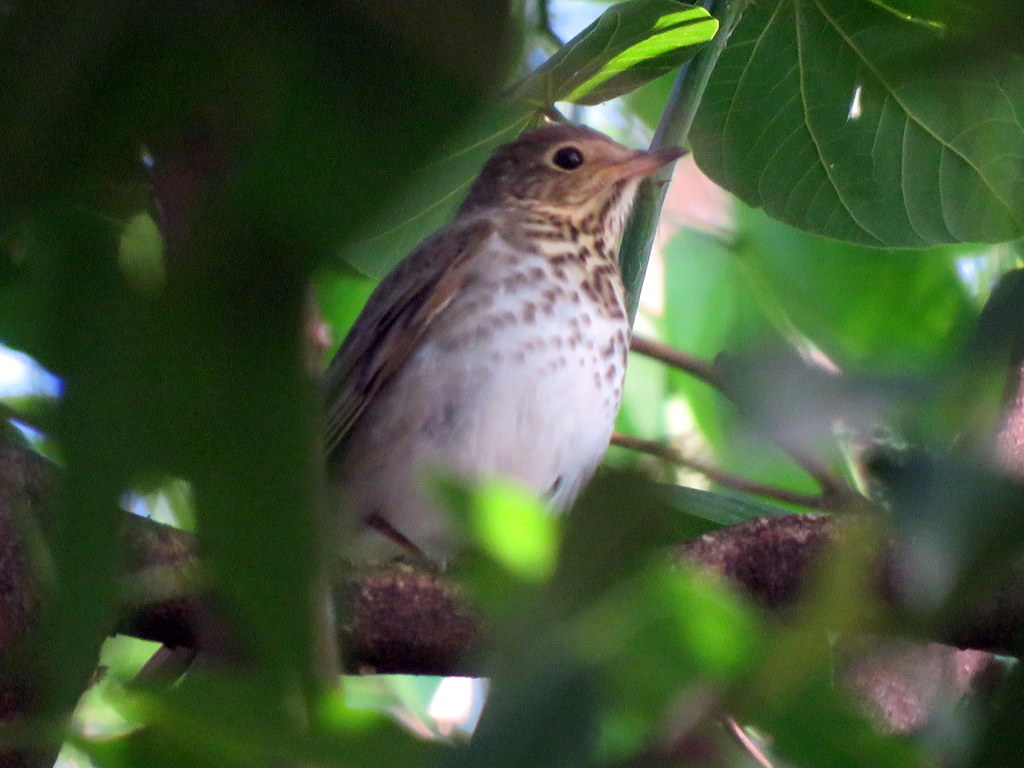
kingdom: Animalia
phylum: Chordata
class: Aves
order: Passeriformes
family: Turdidae
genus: Catharus
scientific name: Catharus ustulatus
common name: Swainson's thrush
